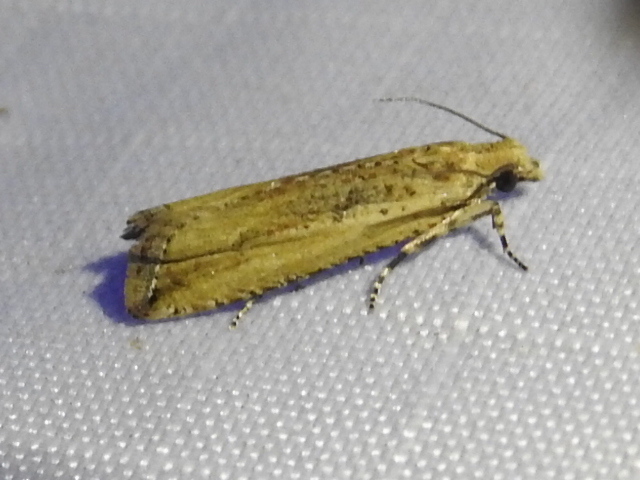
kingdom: Animalia
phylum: Arthropoda
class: Insecta
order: Lepidoptera
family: Tortricidae
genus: Bactra
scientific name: Bactra verutana
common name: Javelin moth
